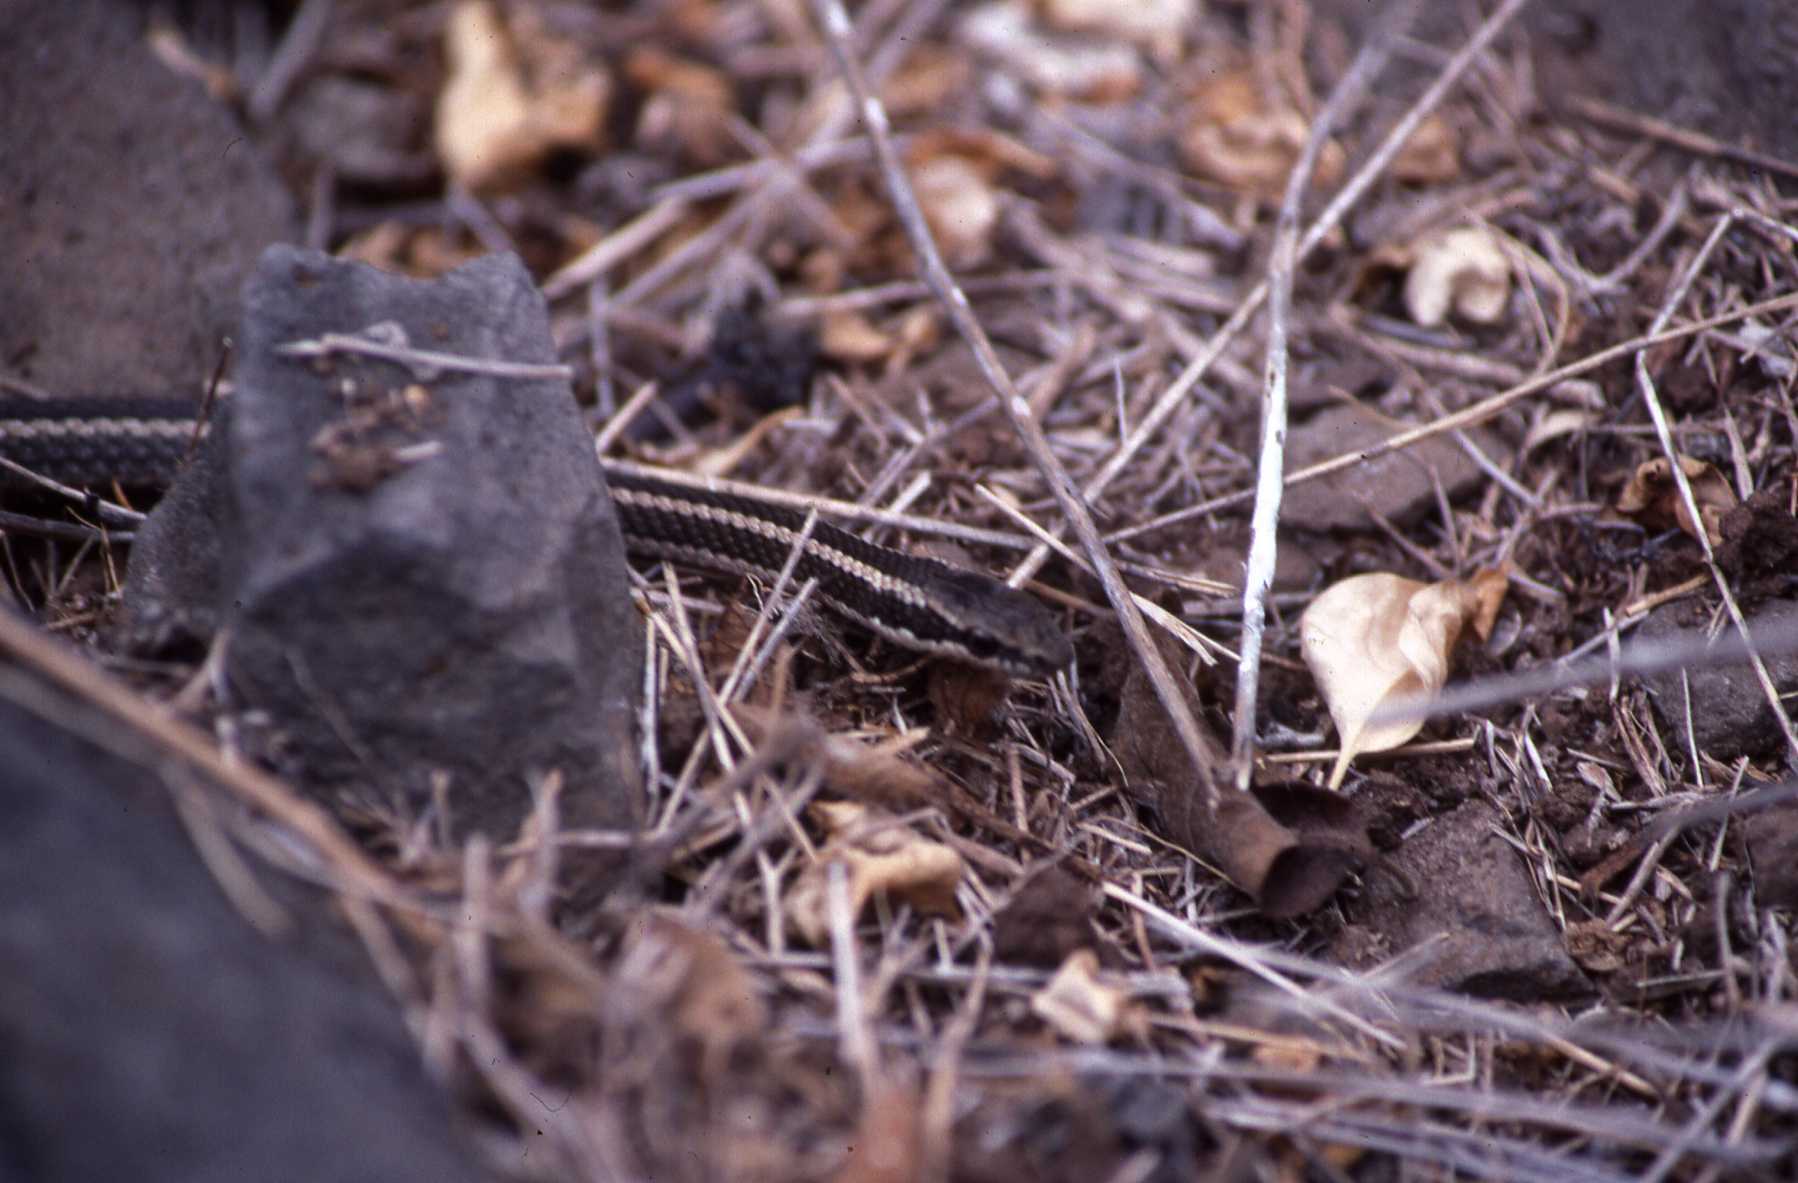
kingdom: Animalia
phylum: Chordata
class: Squamata
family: Colubridae
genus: Pseudalsophis
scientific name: Pseudalsophis hoodensis
